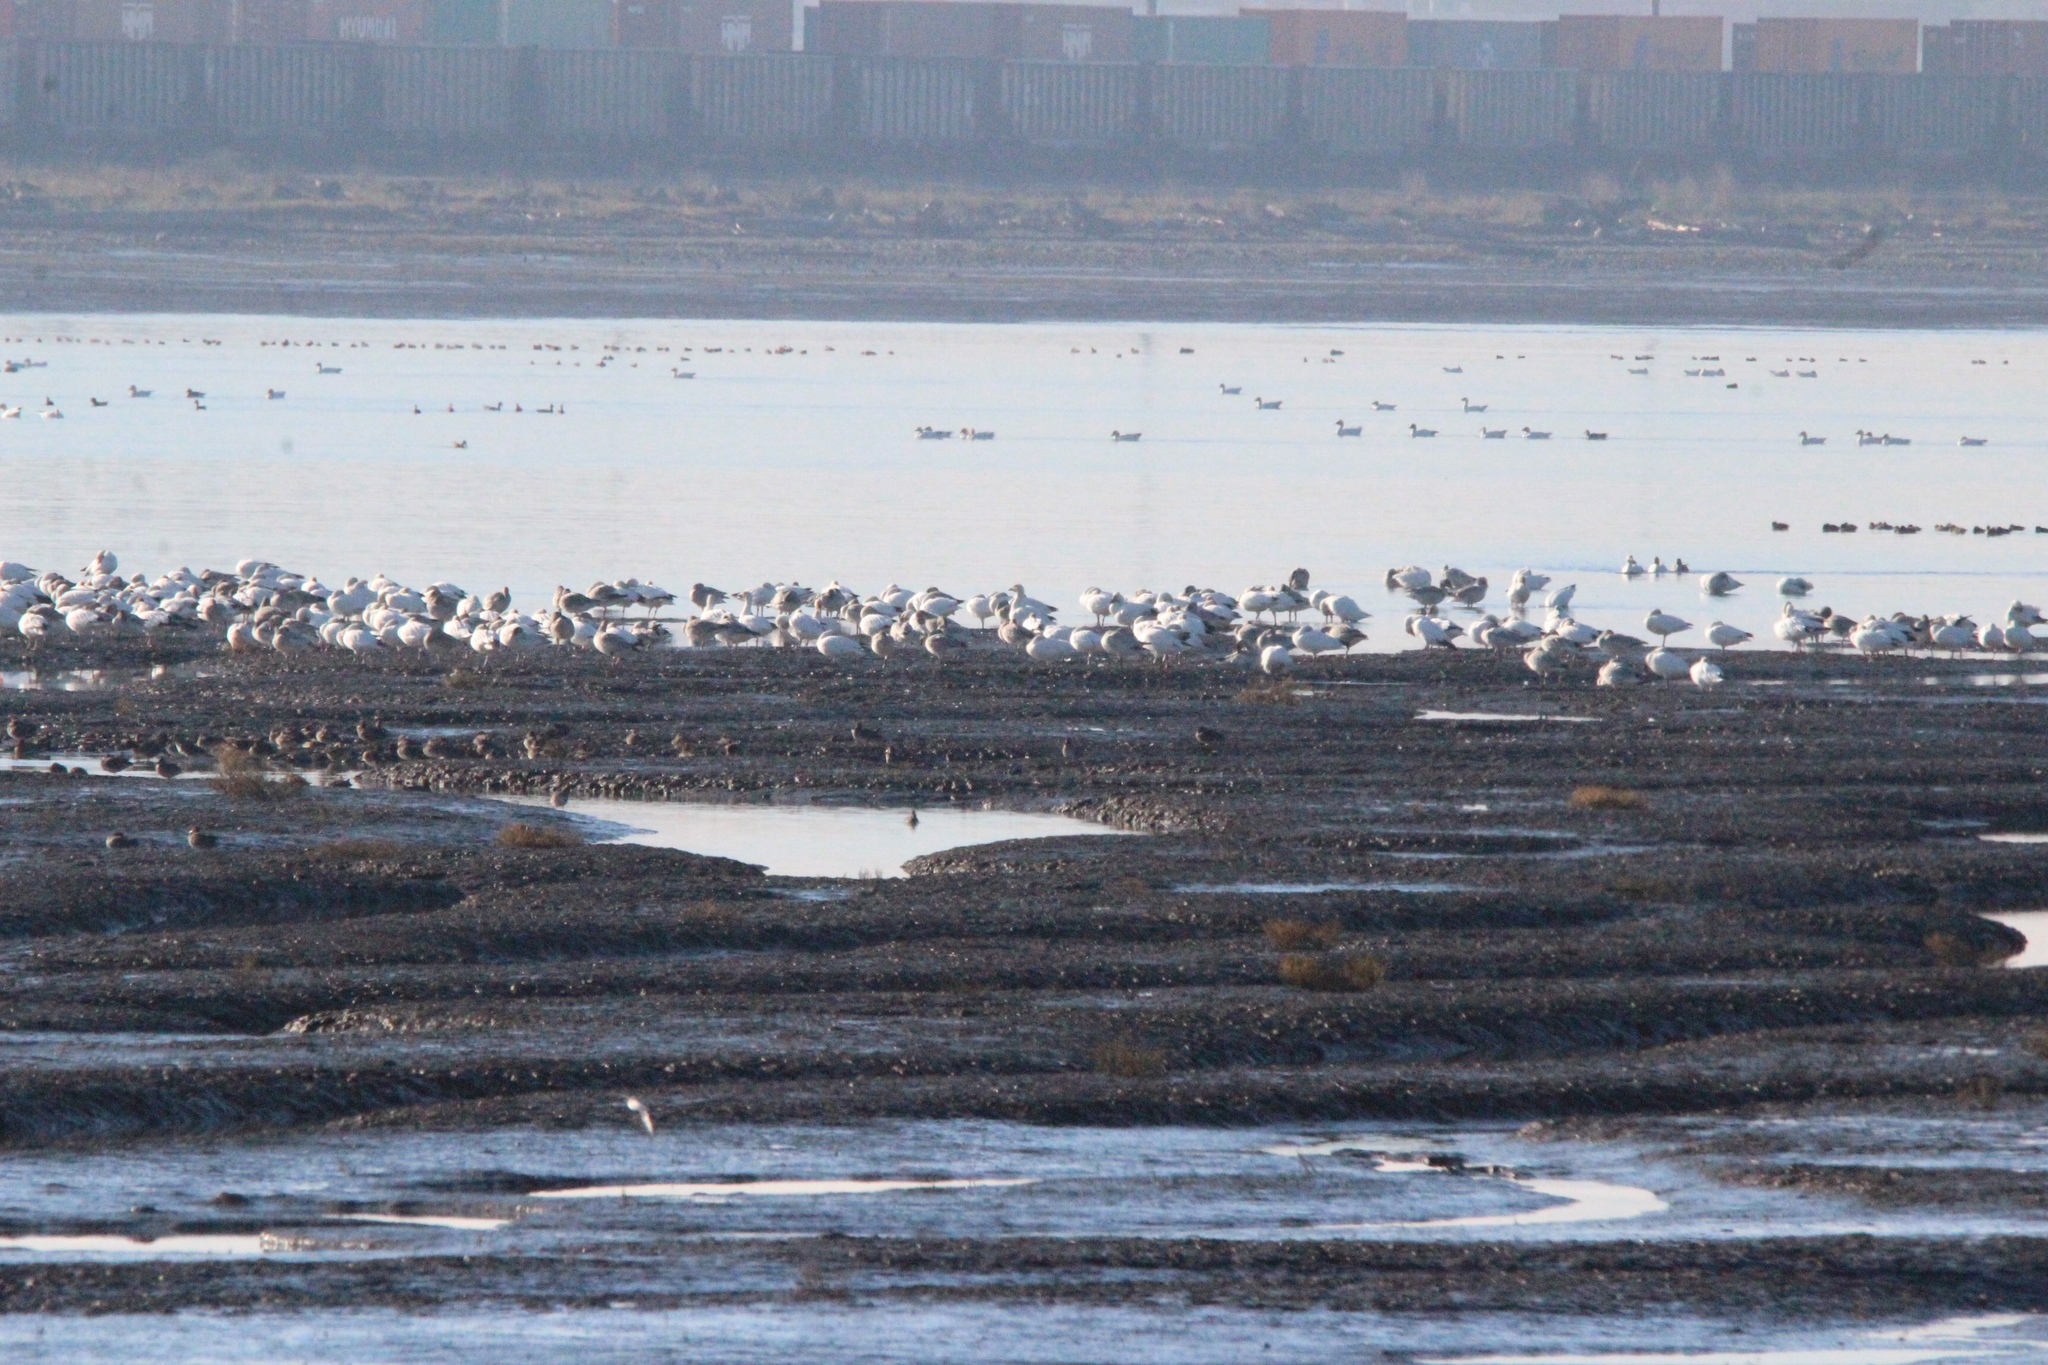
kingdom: Animalia
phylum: Chordata
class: Aves
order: Anseriformes
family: Anatidae
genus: Anser
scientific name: Anser caerulescens
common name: Snow goose
